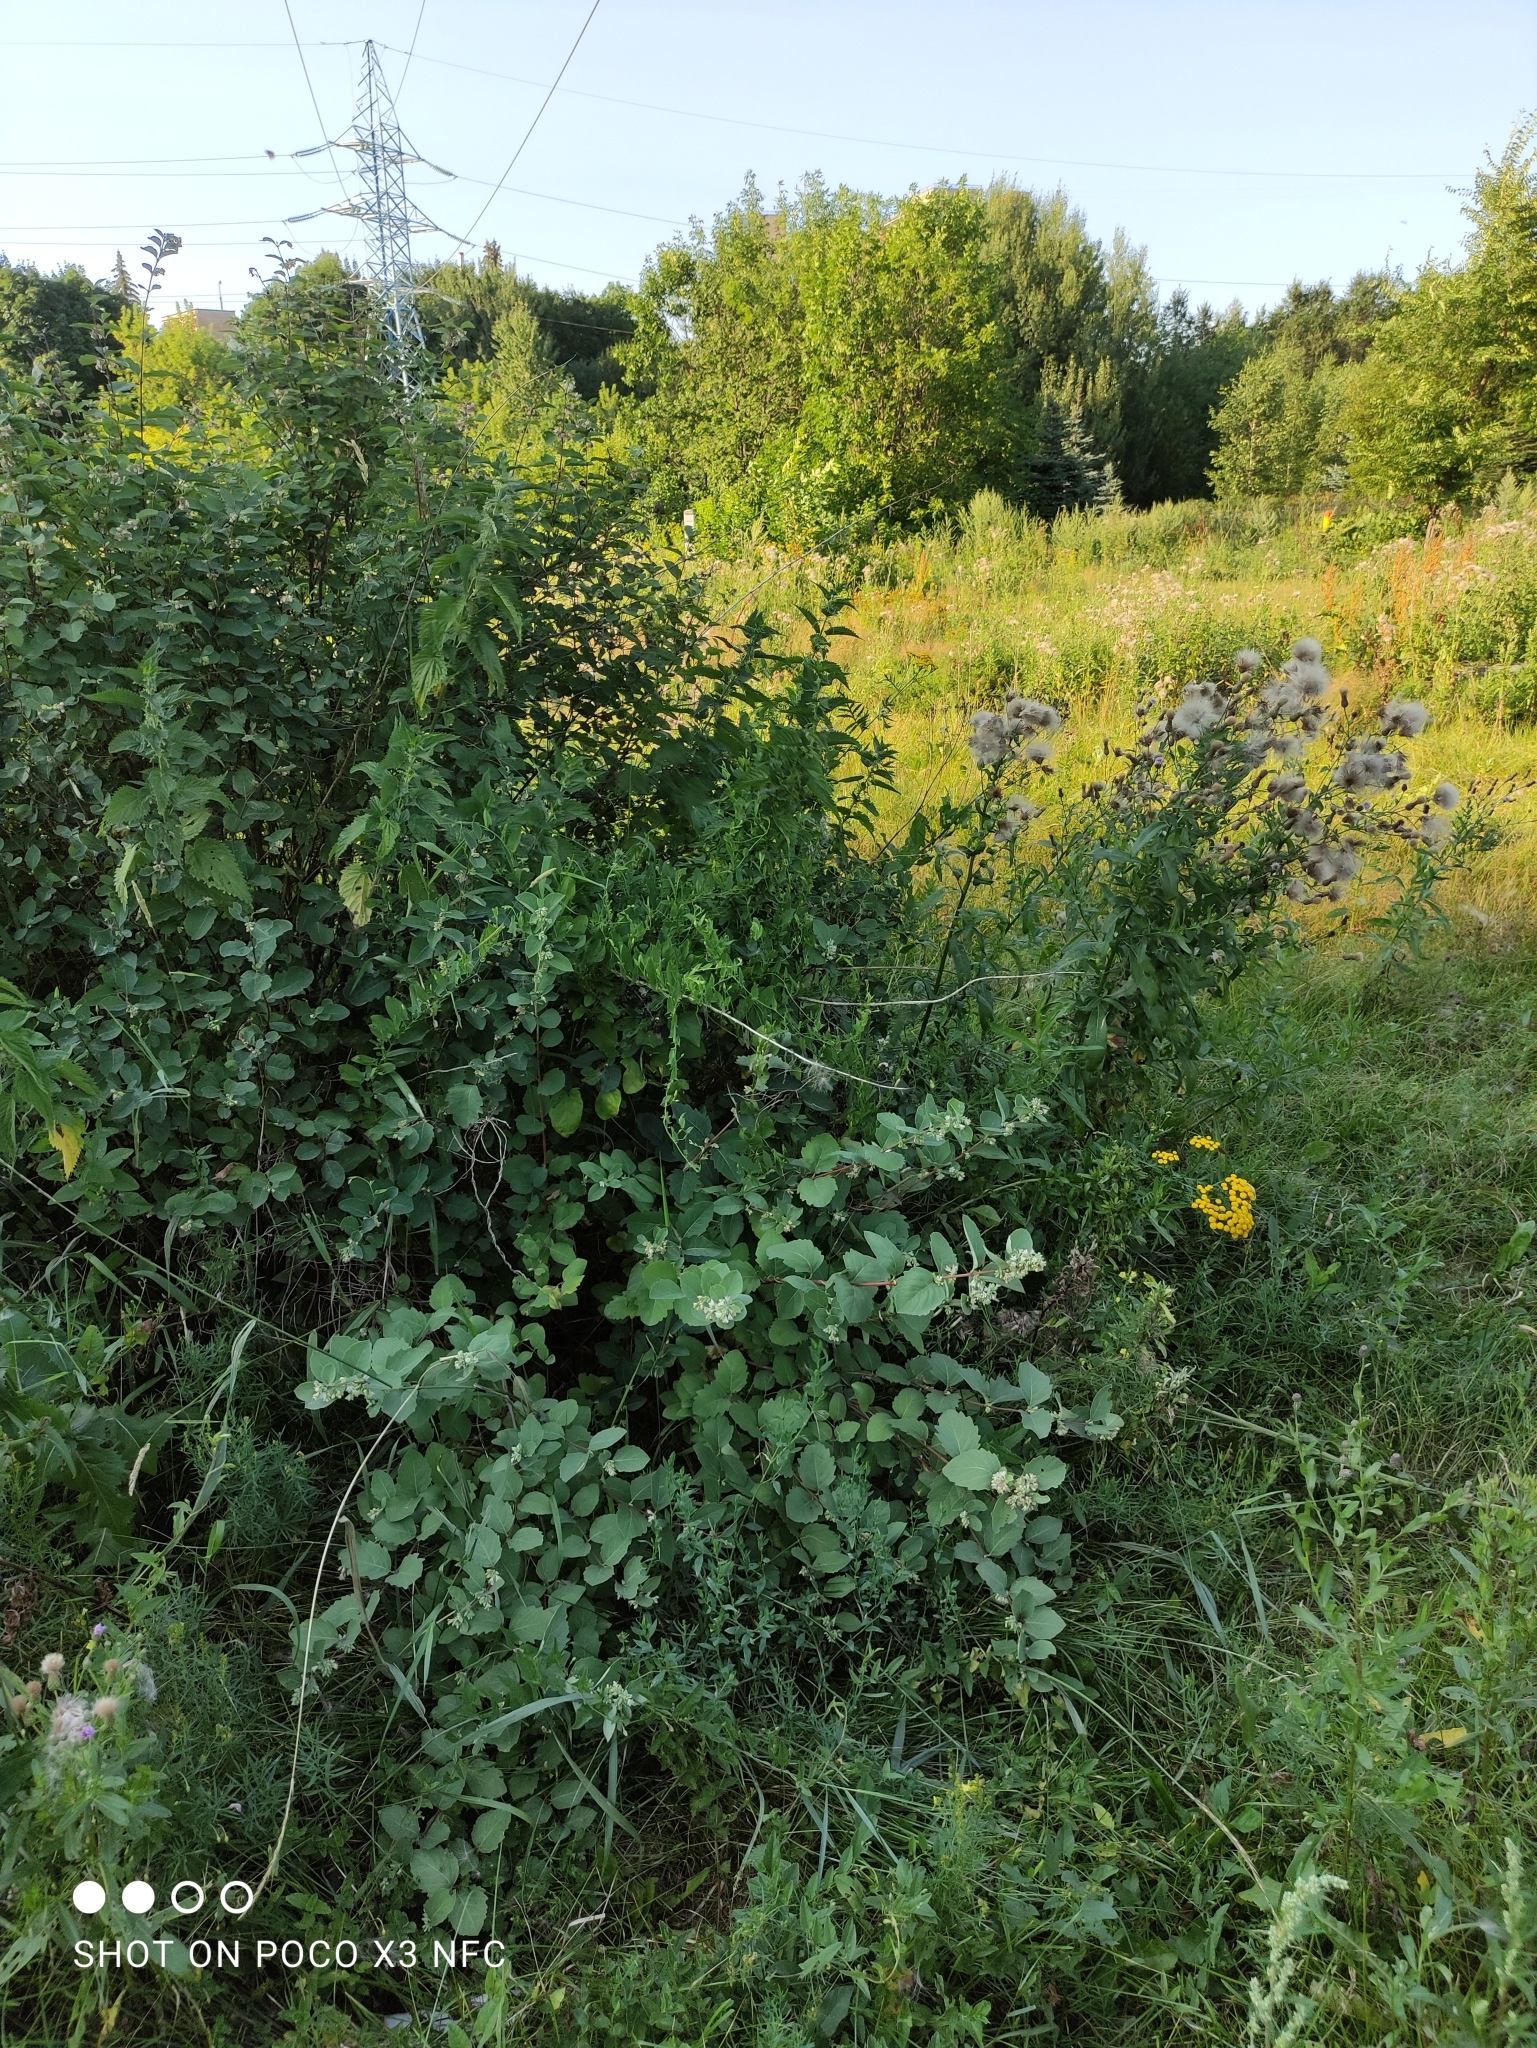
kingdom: Plantae
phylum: Tracheophyta
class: Magnoliopsida
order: Dipsacales
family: Caprifoliaceae
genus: Symphoricarpos
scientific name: Symphoricarpos albus
